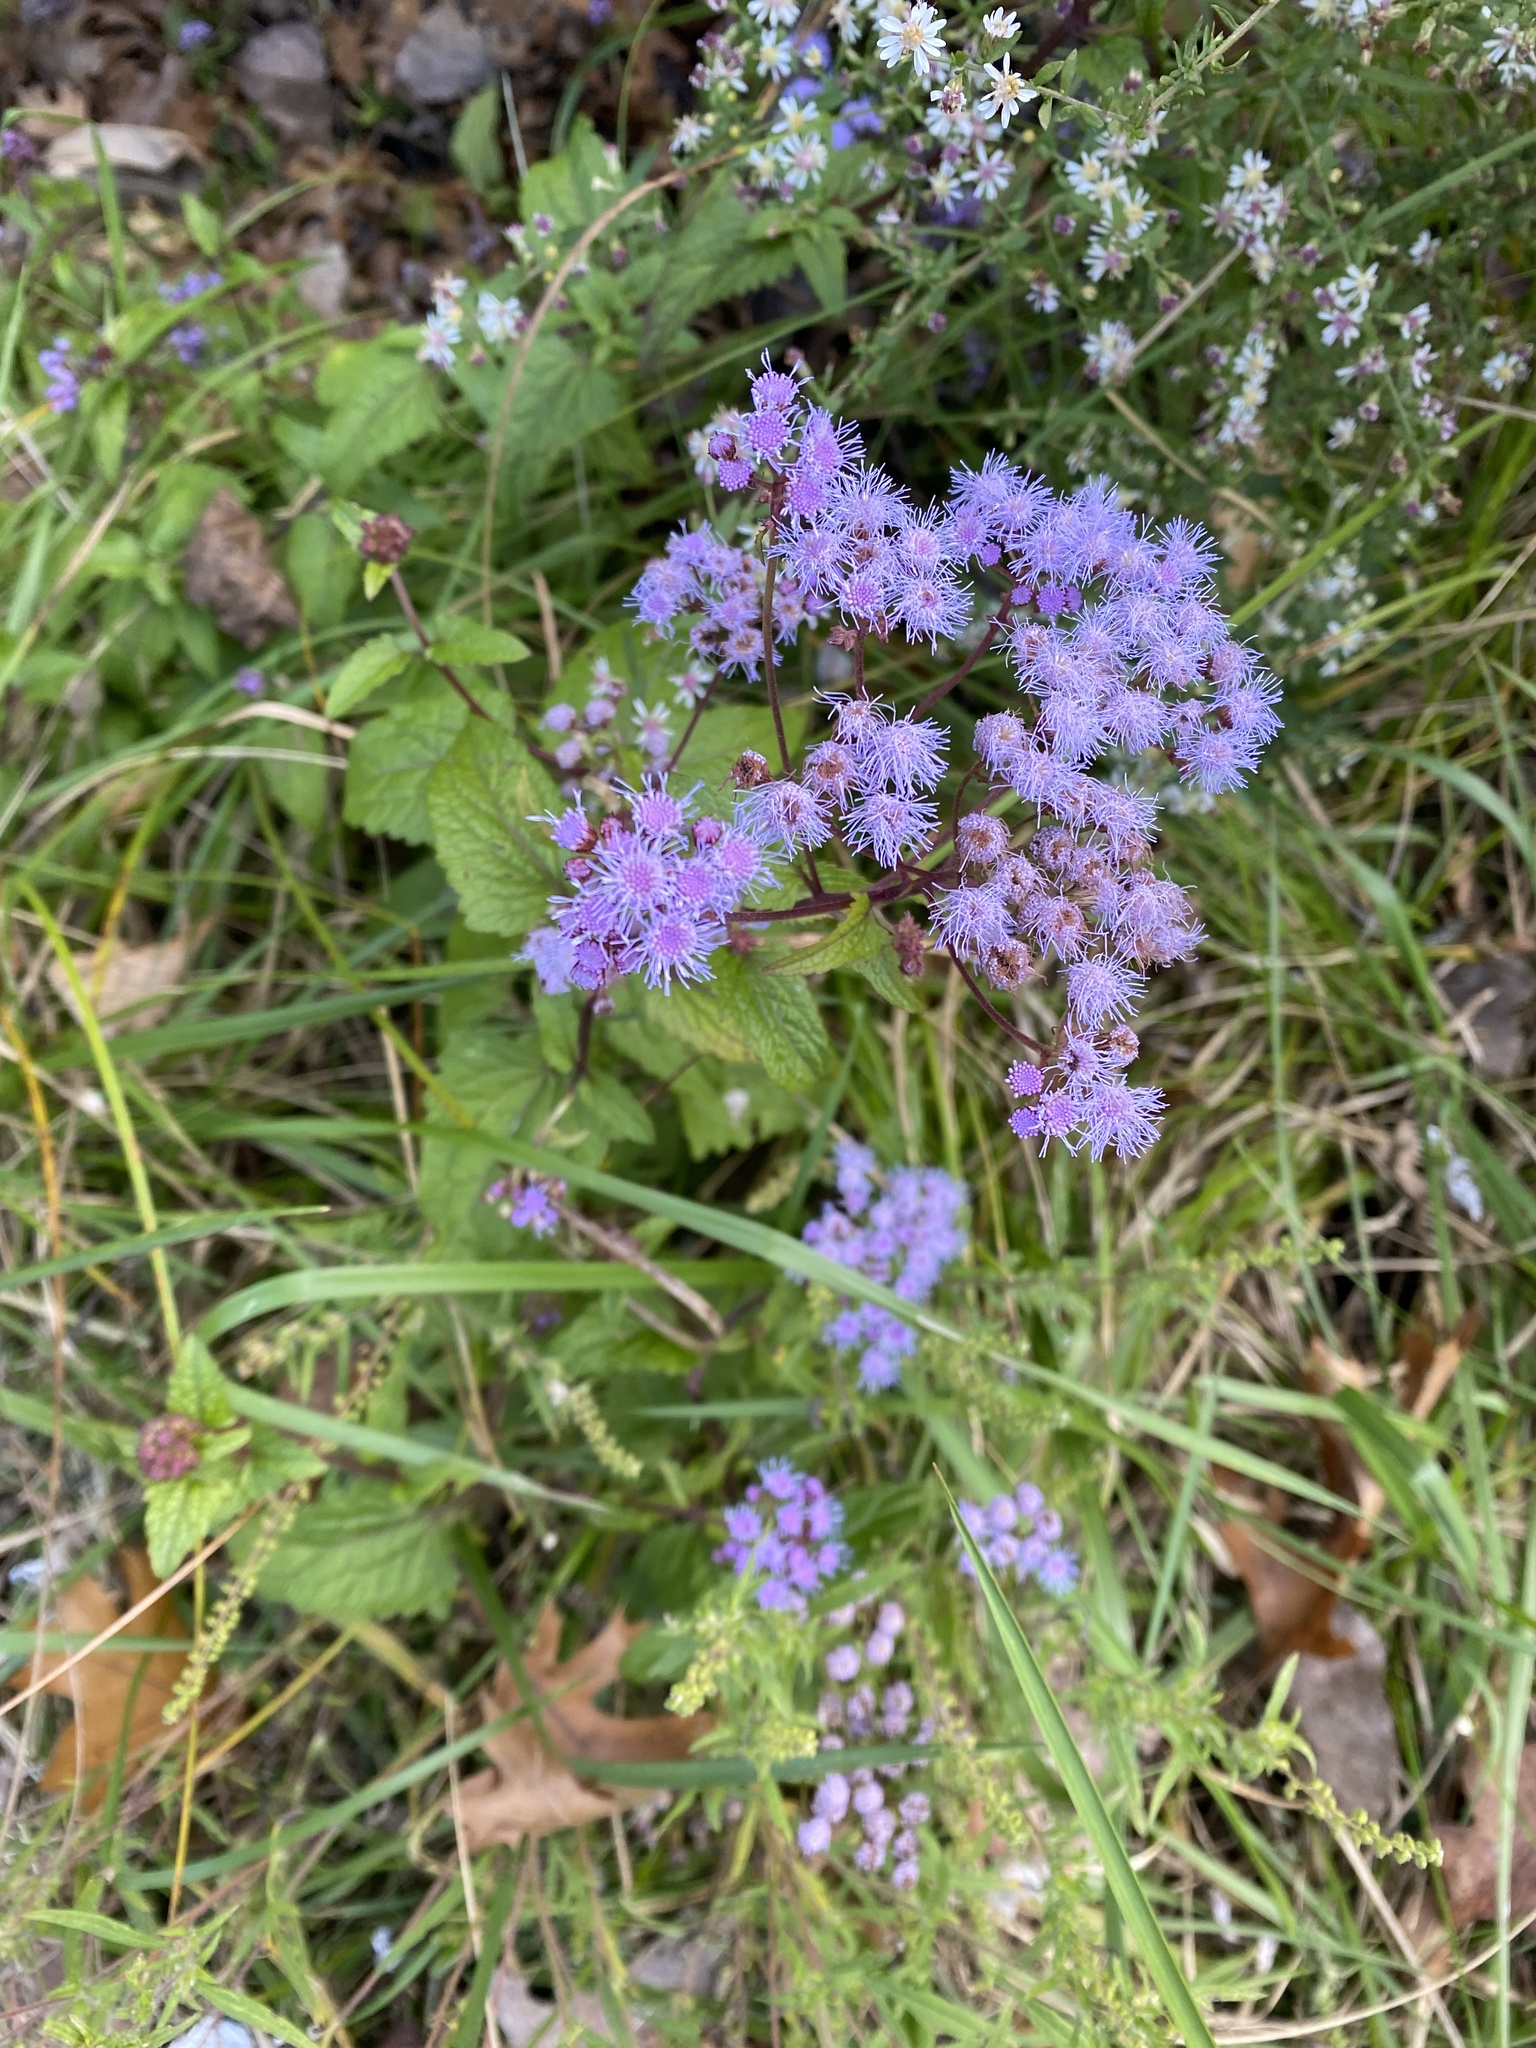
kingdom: Plantae
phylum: Tracheophyta
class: Magnoliopsida
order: Asterales
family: Asteraceae
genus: Conoclinium
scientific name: Conoclinium coelestinum
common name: Blue mistflower
